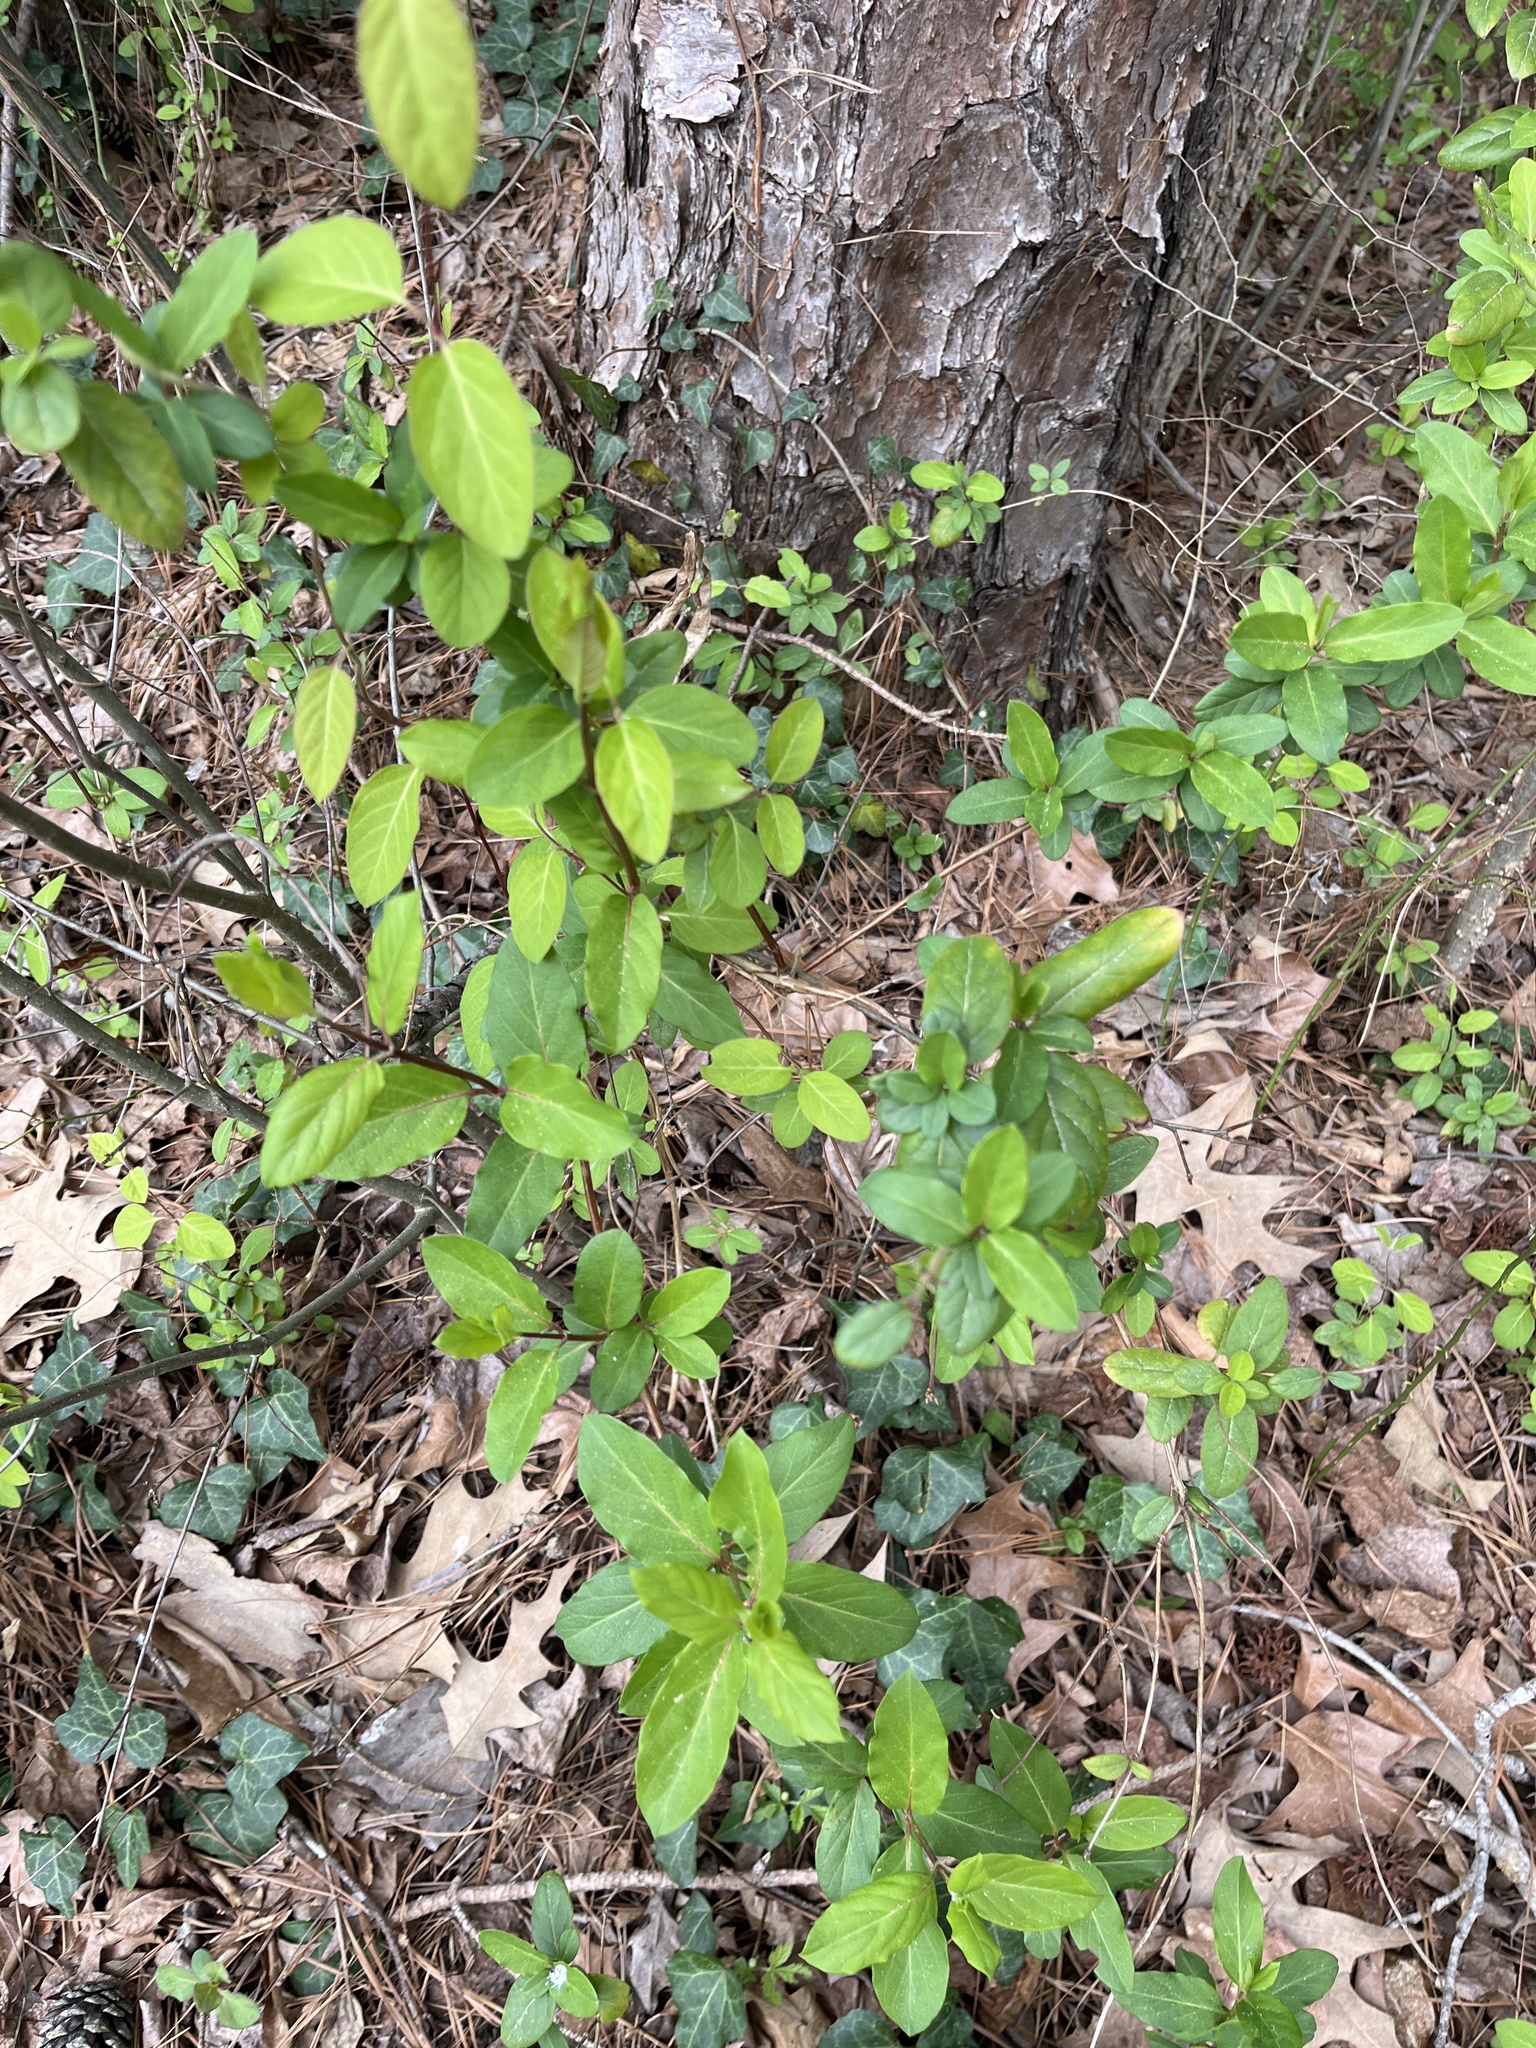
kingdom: Plantae
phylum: Tracheophyta
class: Magnoliopsida
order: Dipsacales
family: Caprifoliaceae
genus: Lonicera
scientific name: Lonicera japonica
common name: Japanese honeysuckle
